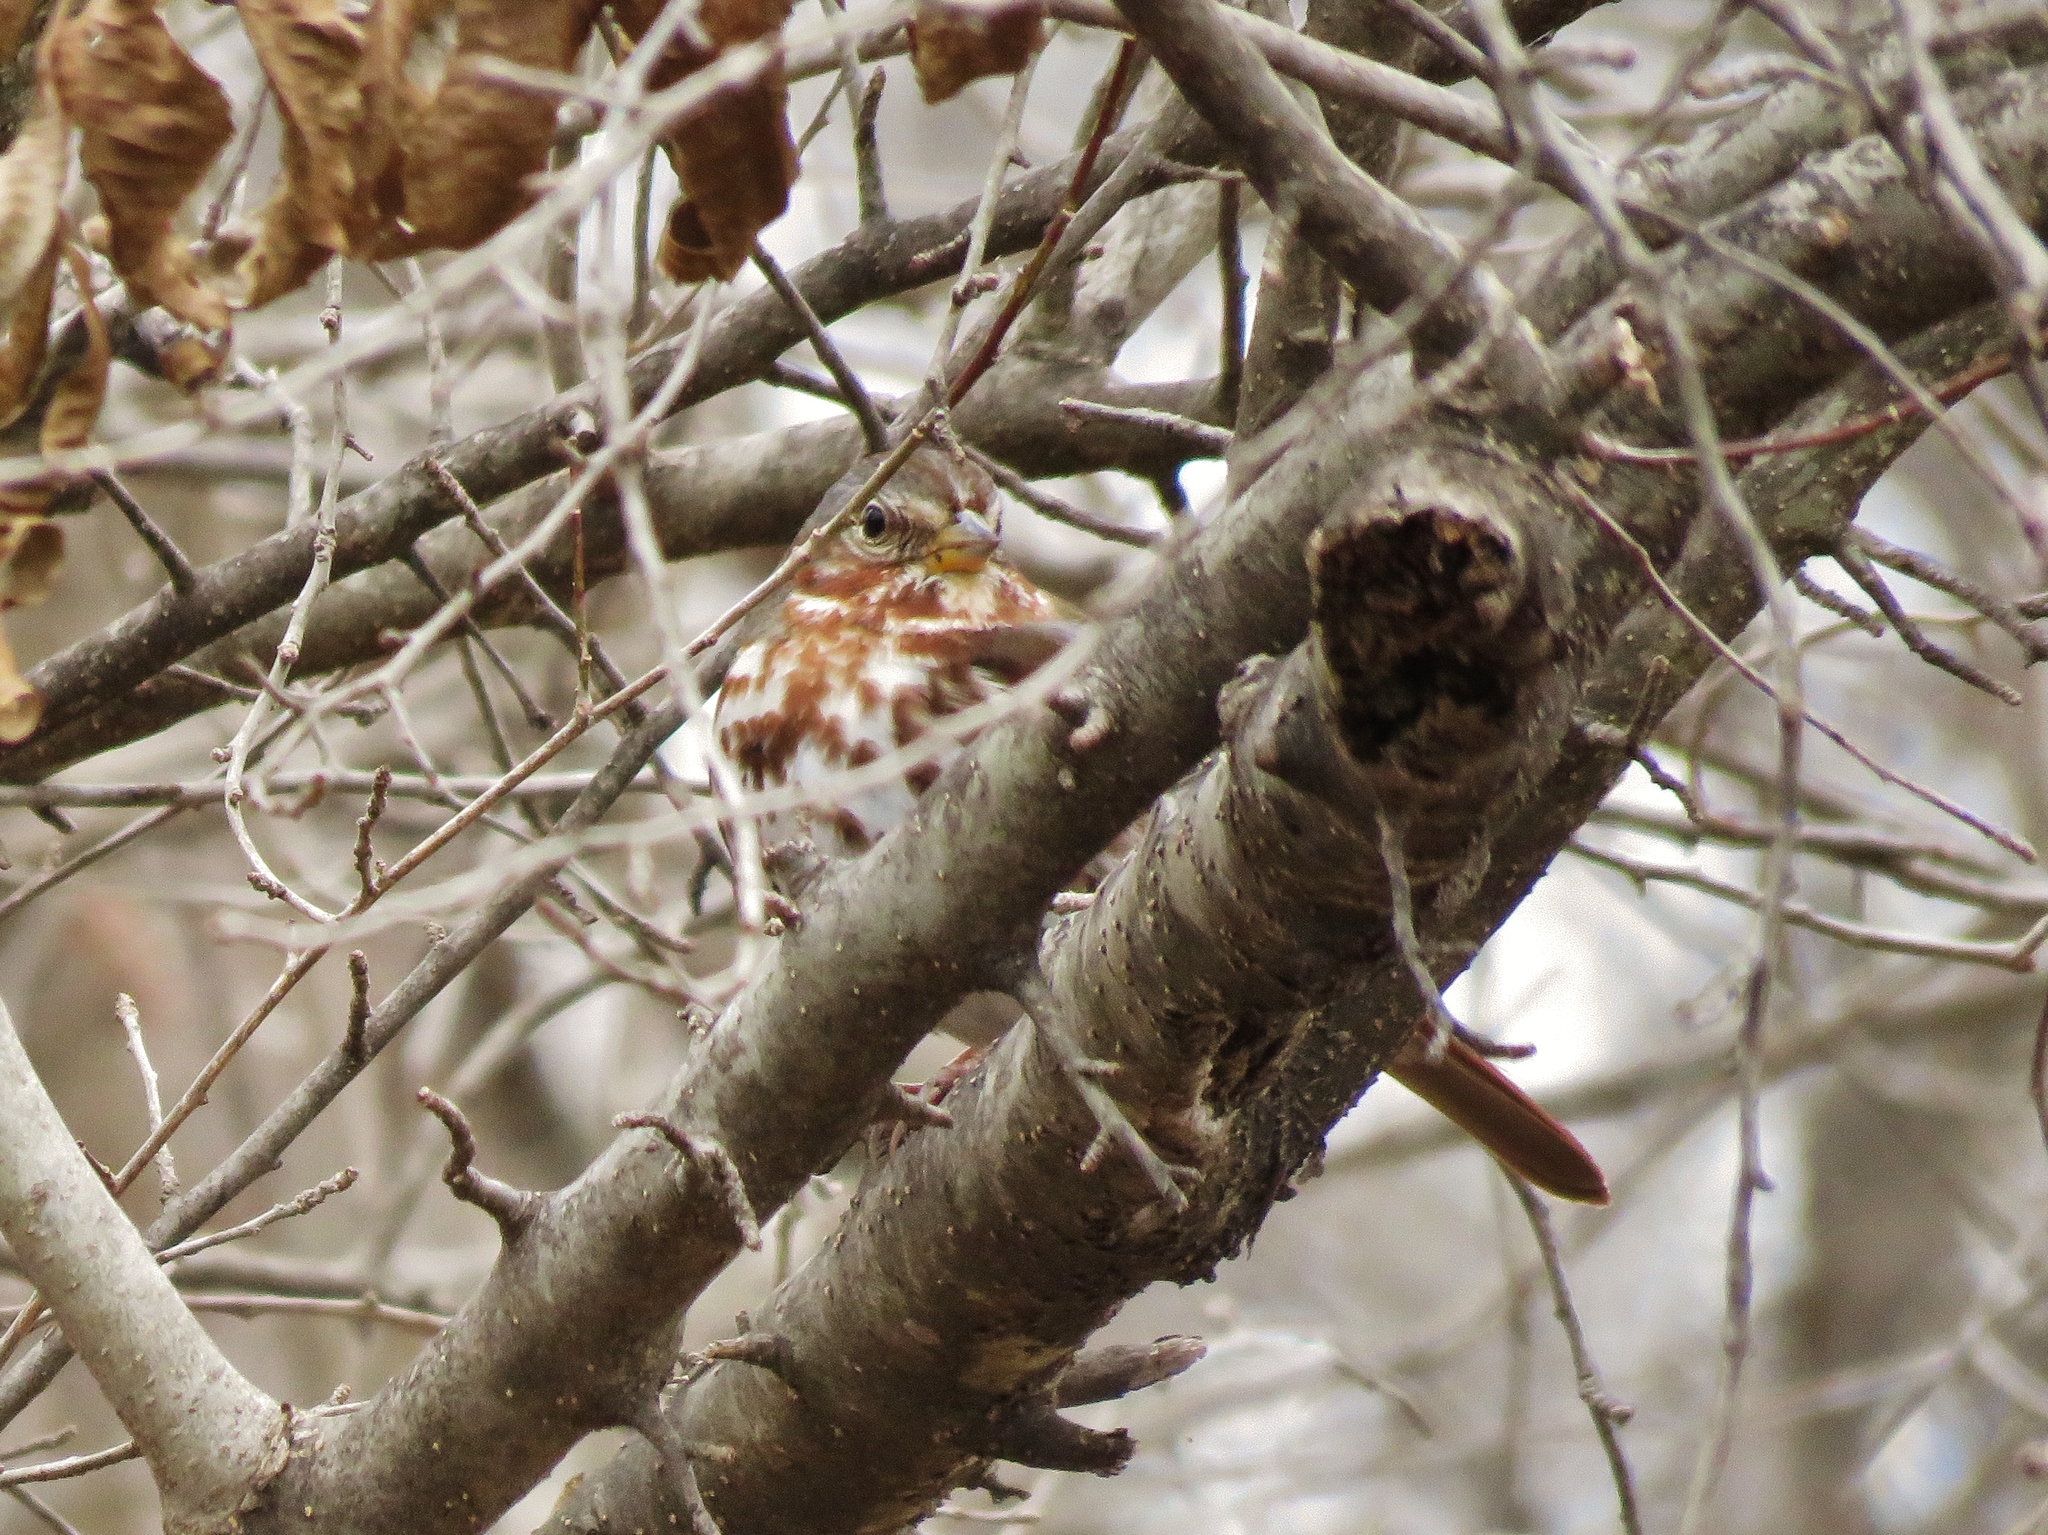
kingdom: Animalia
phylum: Chordata
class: Aves
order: Passeriformes
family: Passerellidae
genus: Passerella
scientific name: Passerella iliaca
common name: Fox sparrow
